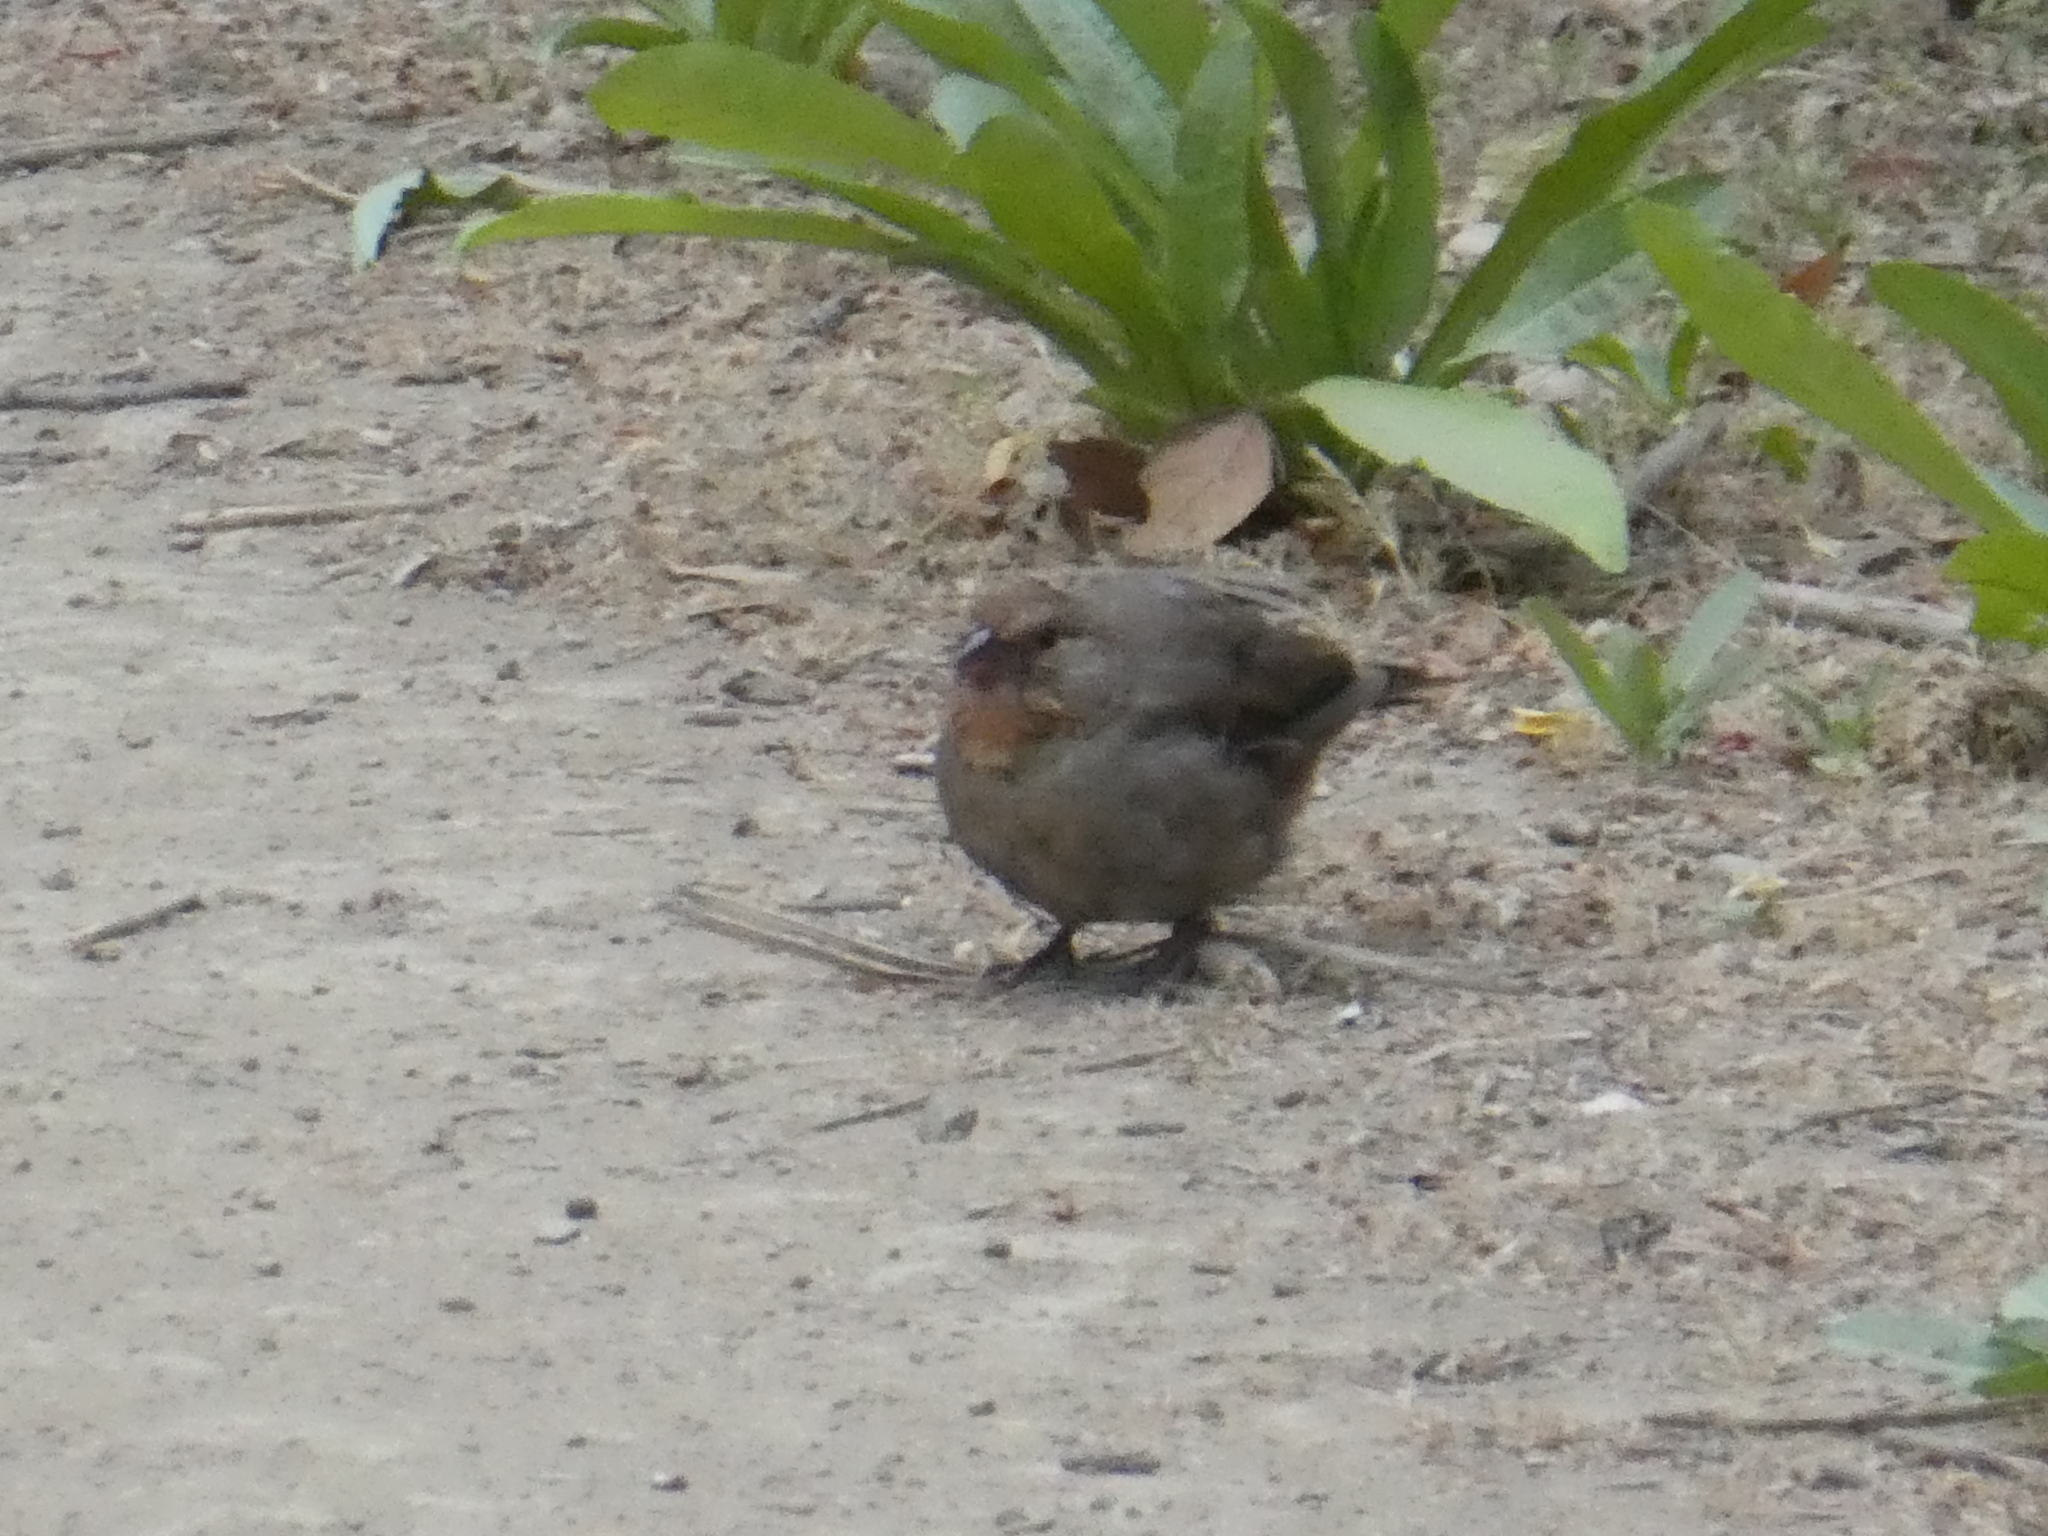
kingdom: Animalia
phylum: Chordata
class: Aves
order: Passeriformes
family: Passerellidae
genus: Melozone
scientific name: Melozone crissalis
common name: California towhee
